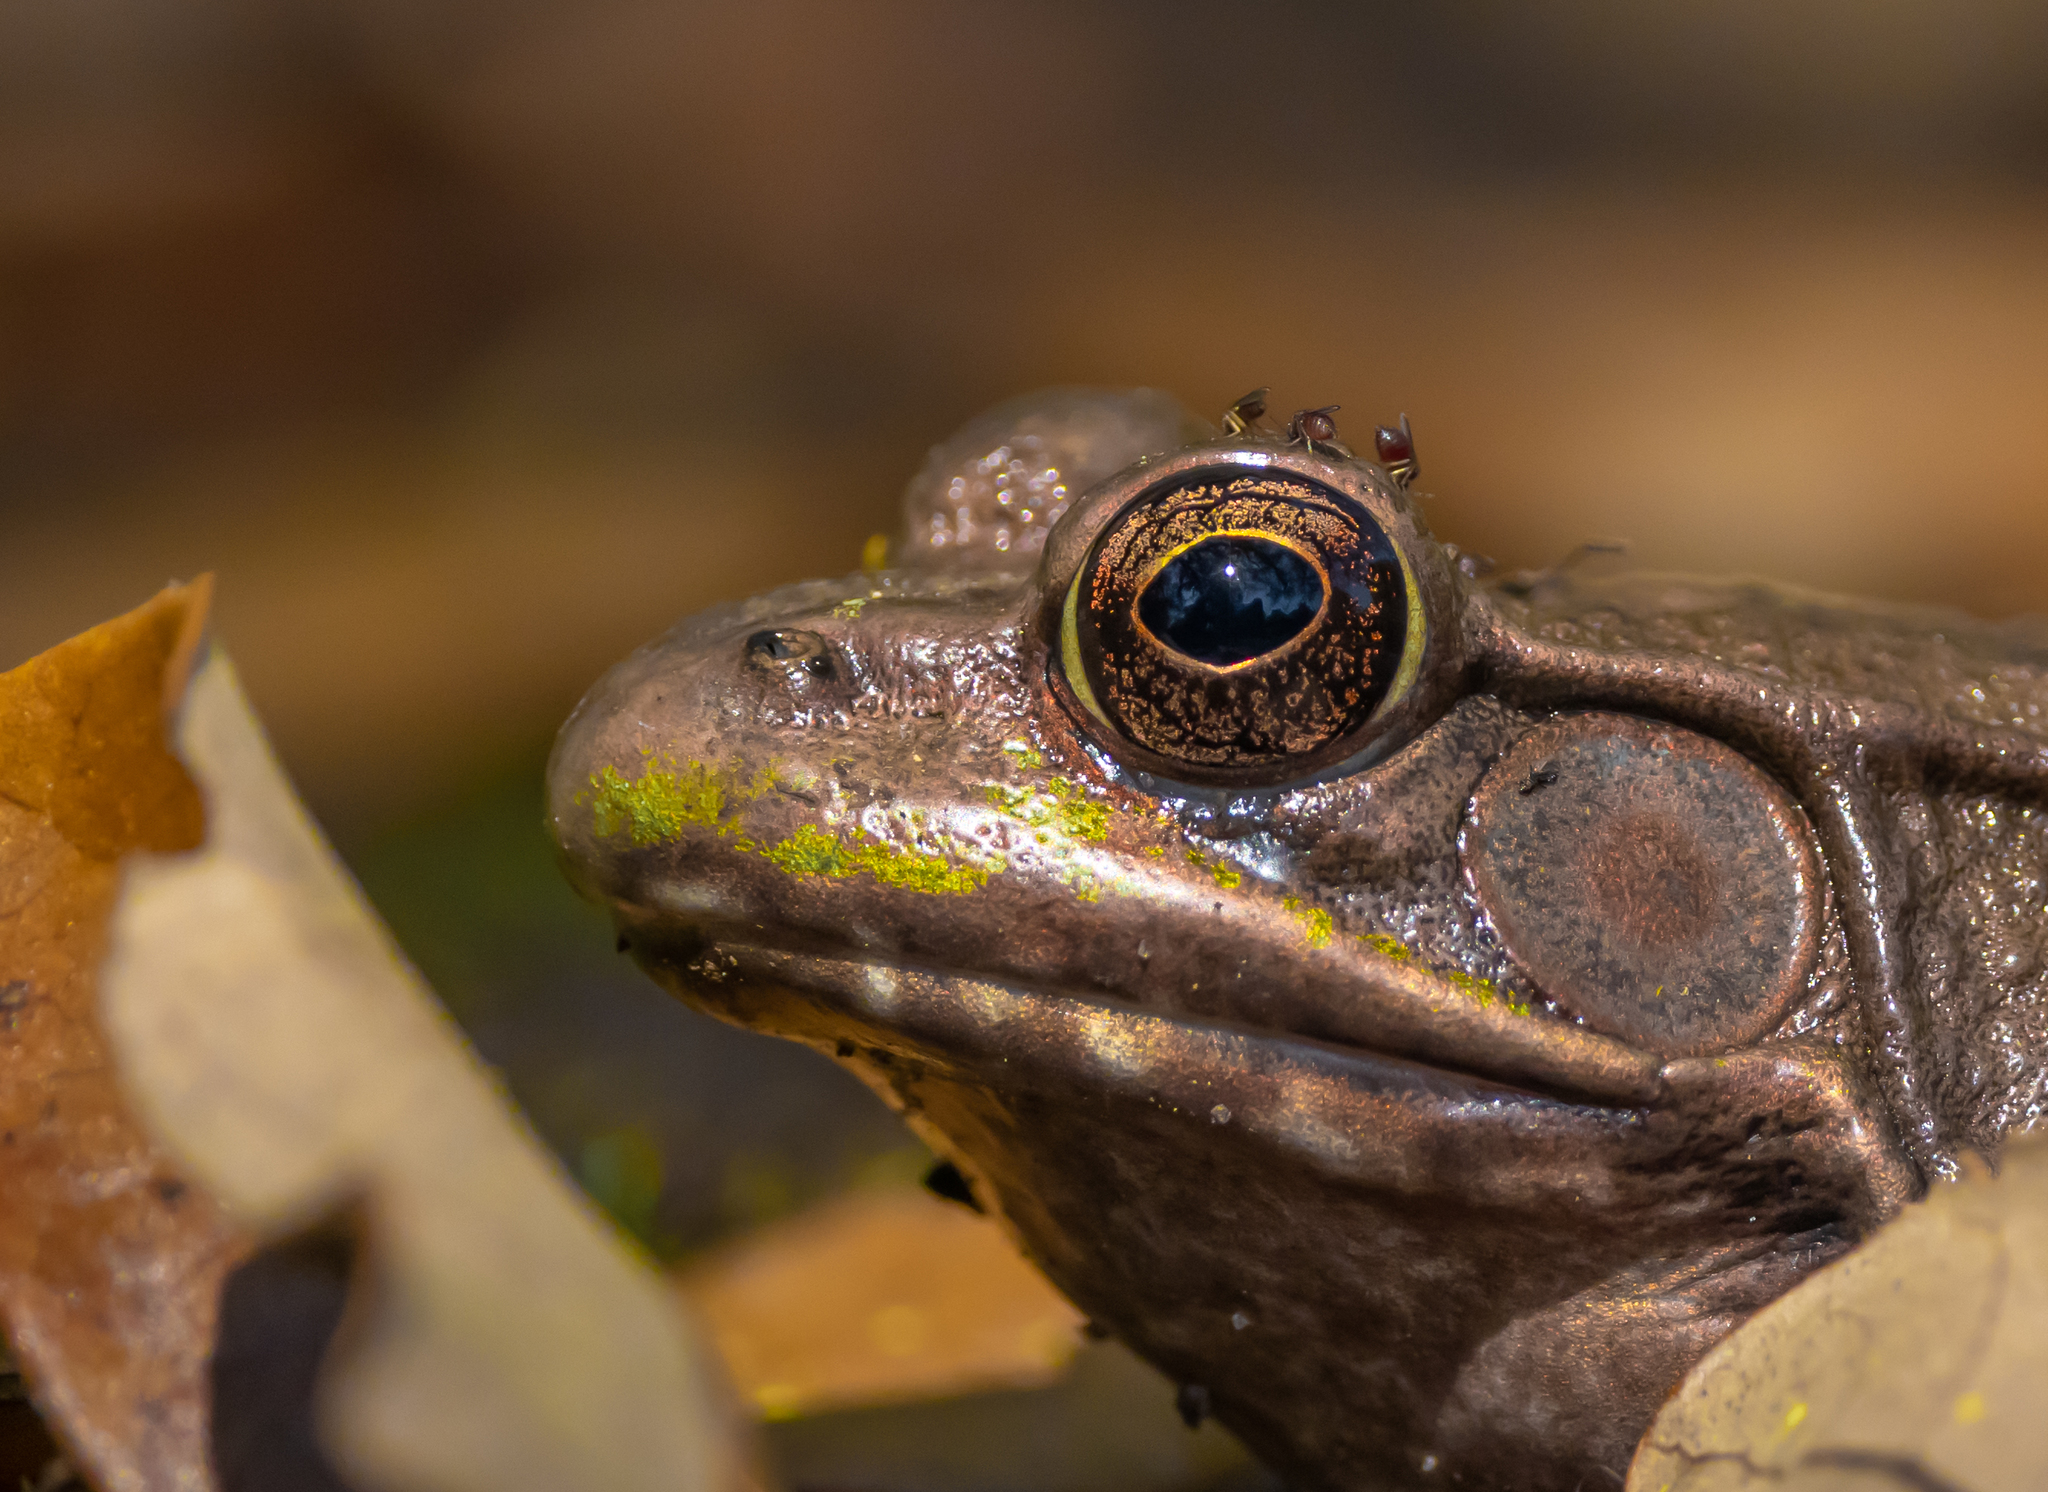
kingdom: Animalia
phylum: Chordata
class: Amphibia
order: Anura
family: Ranidae
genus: Lithobates
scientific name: Lithobates clamitans
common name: Green frog
